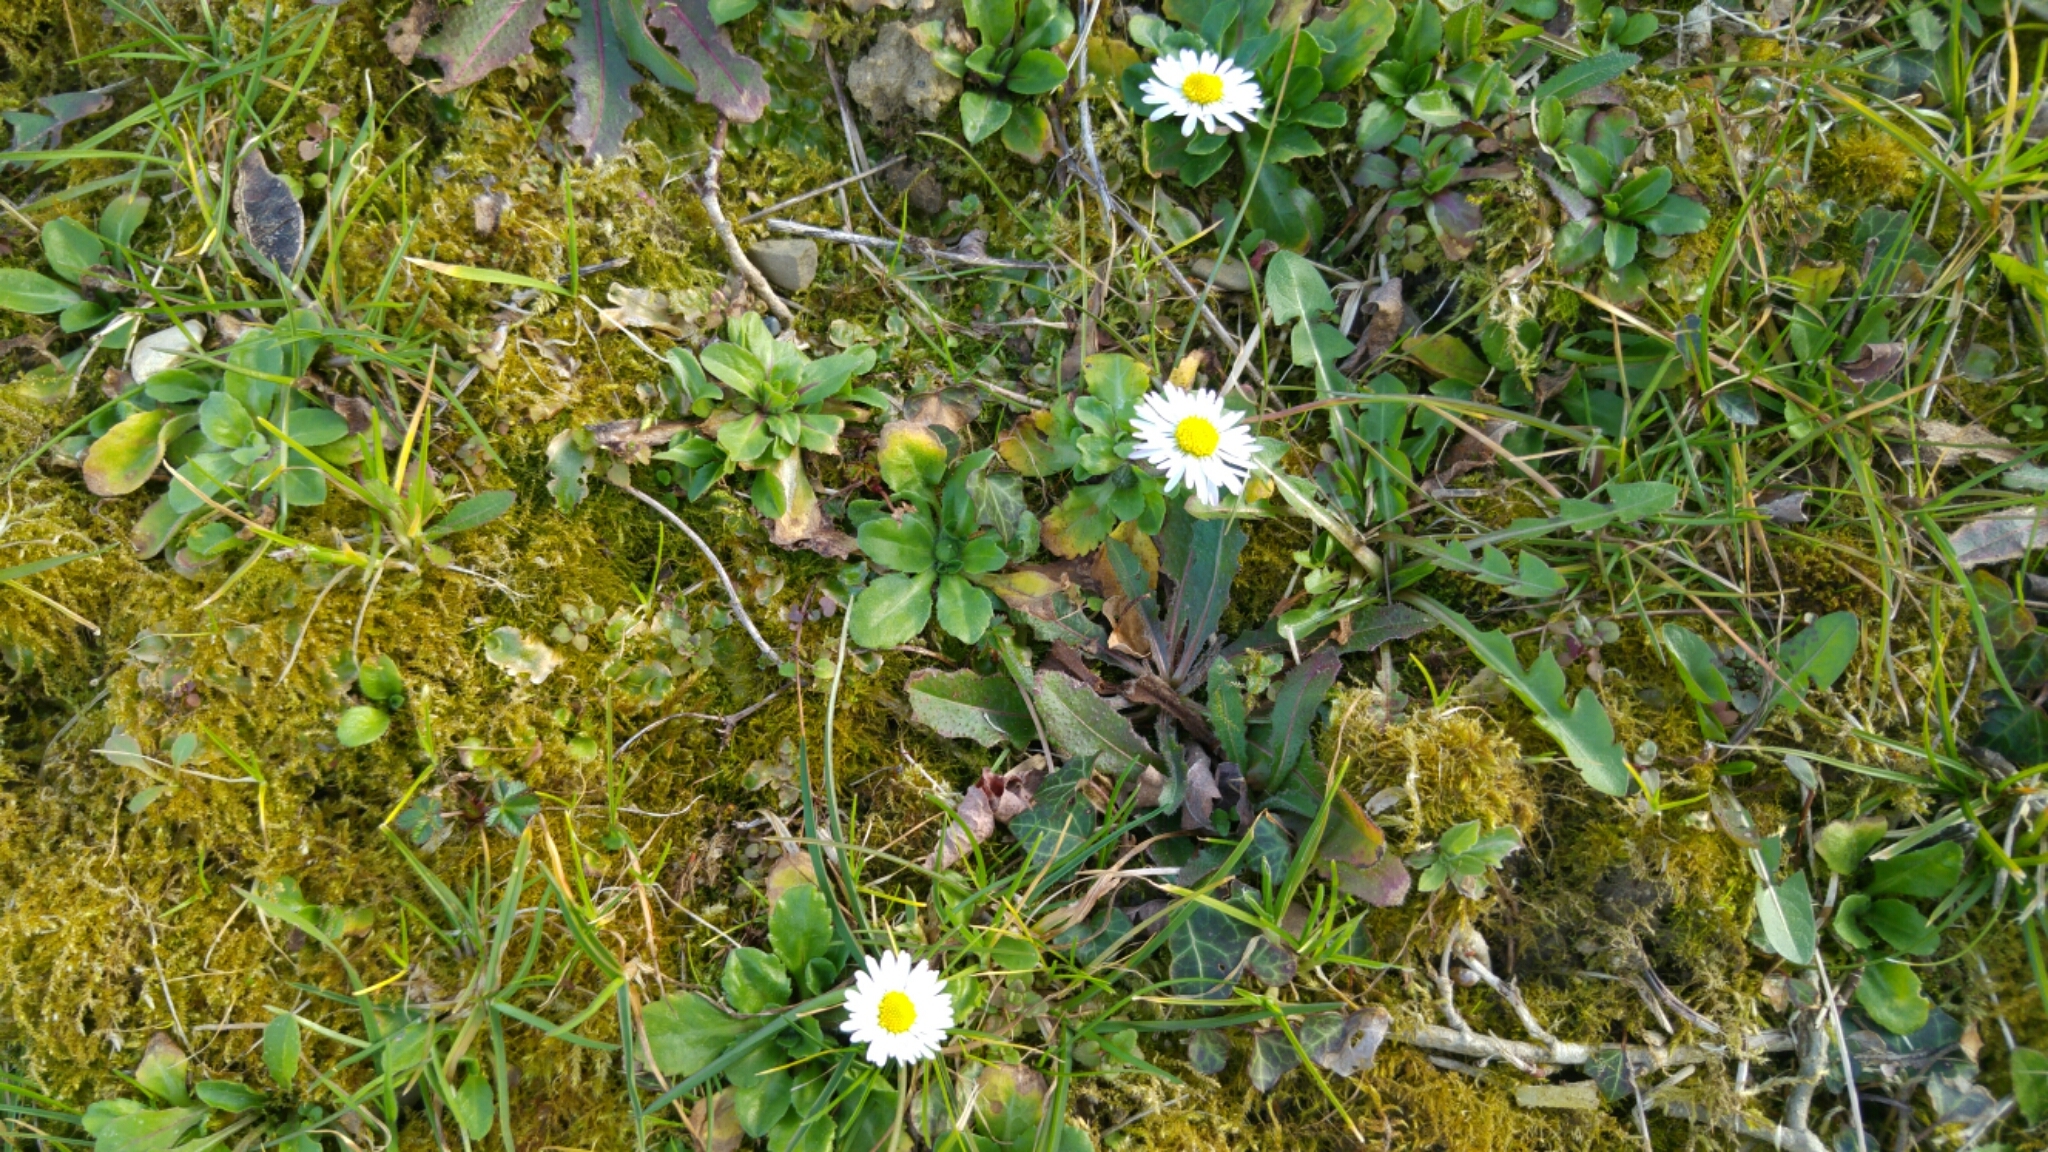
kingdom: Plantae
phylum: Tracheophyta
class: Magnoliopsida
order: Asterales
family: Asteraceae
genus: Bellis
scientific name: Bellis perennis
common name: Lawndaisy
